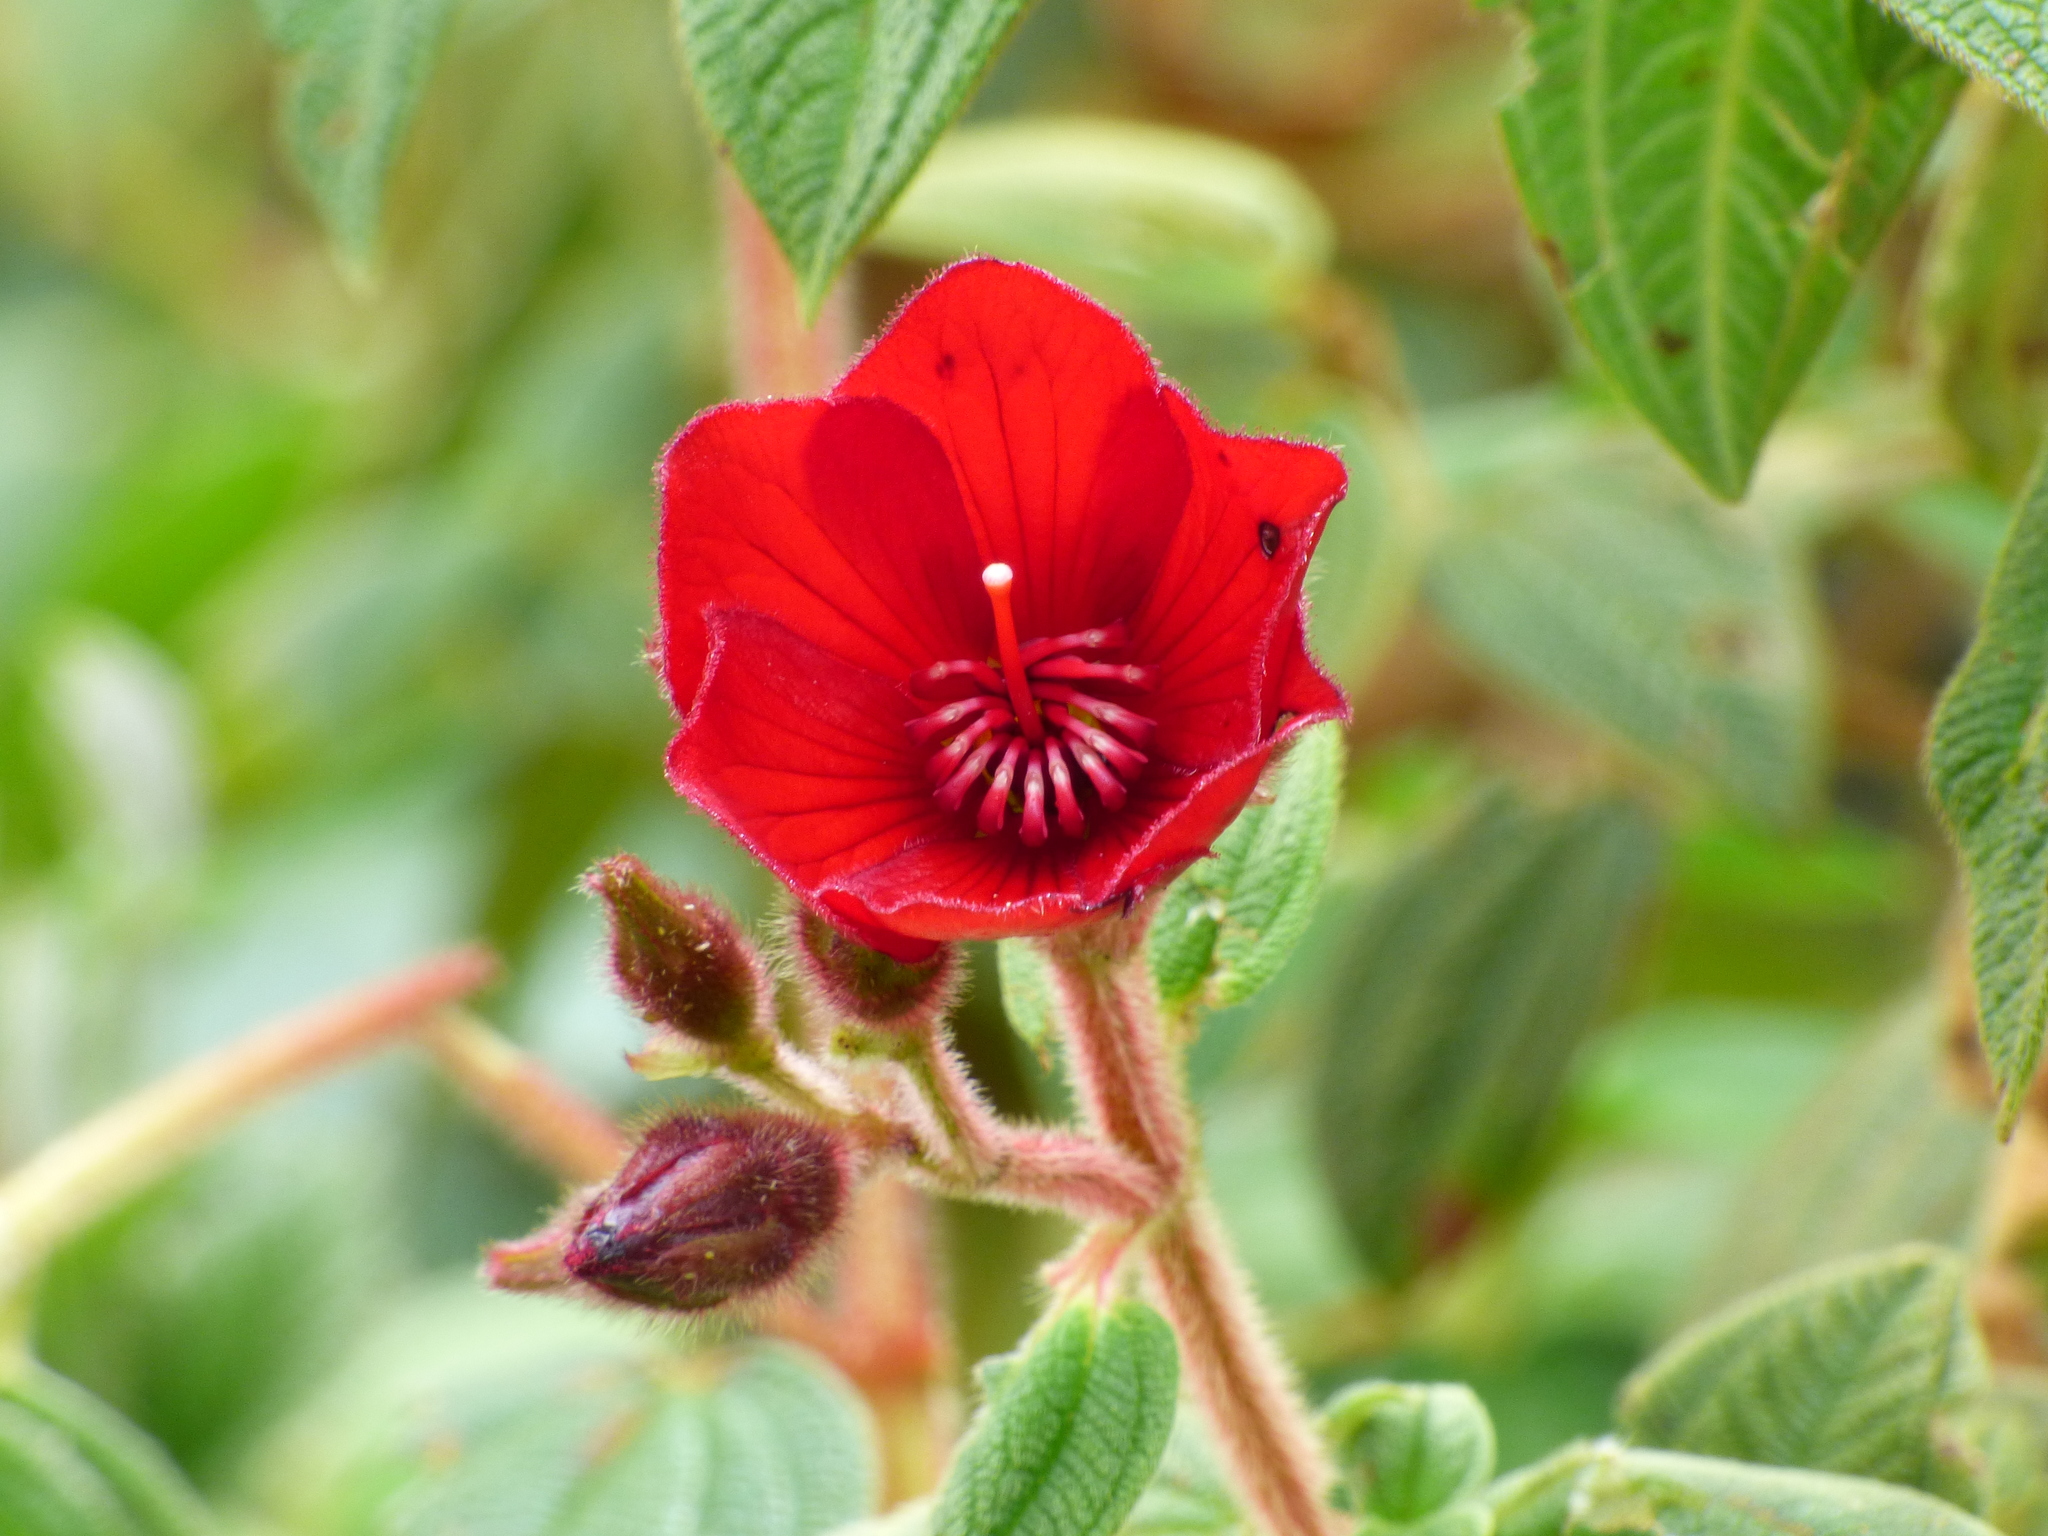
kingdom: Plantae
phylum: Tracheophyta
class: Magnoliopsida
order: Myrtales
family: Melastomataceae
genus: Chaetogastra
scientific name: Chaetogastra grossa
